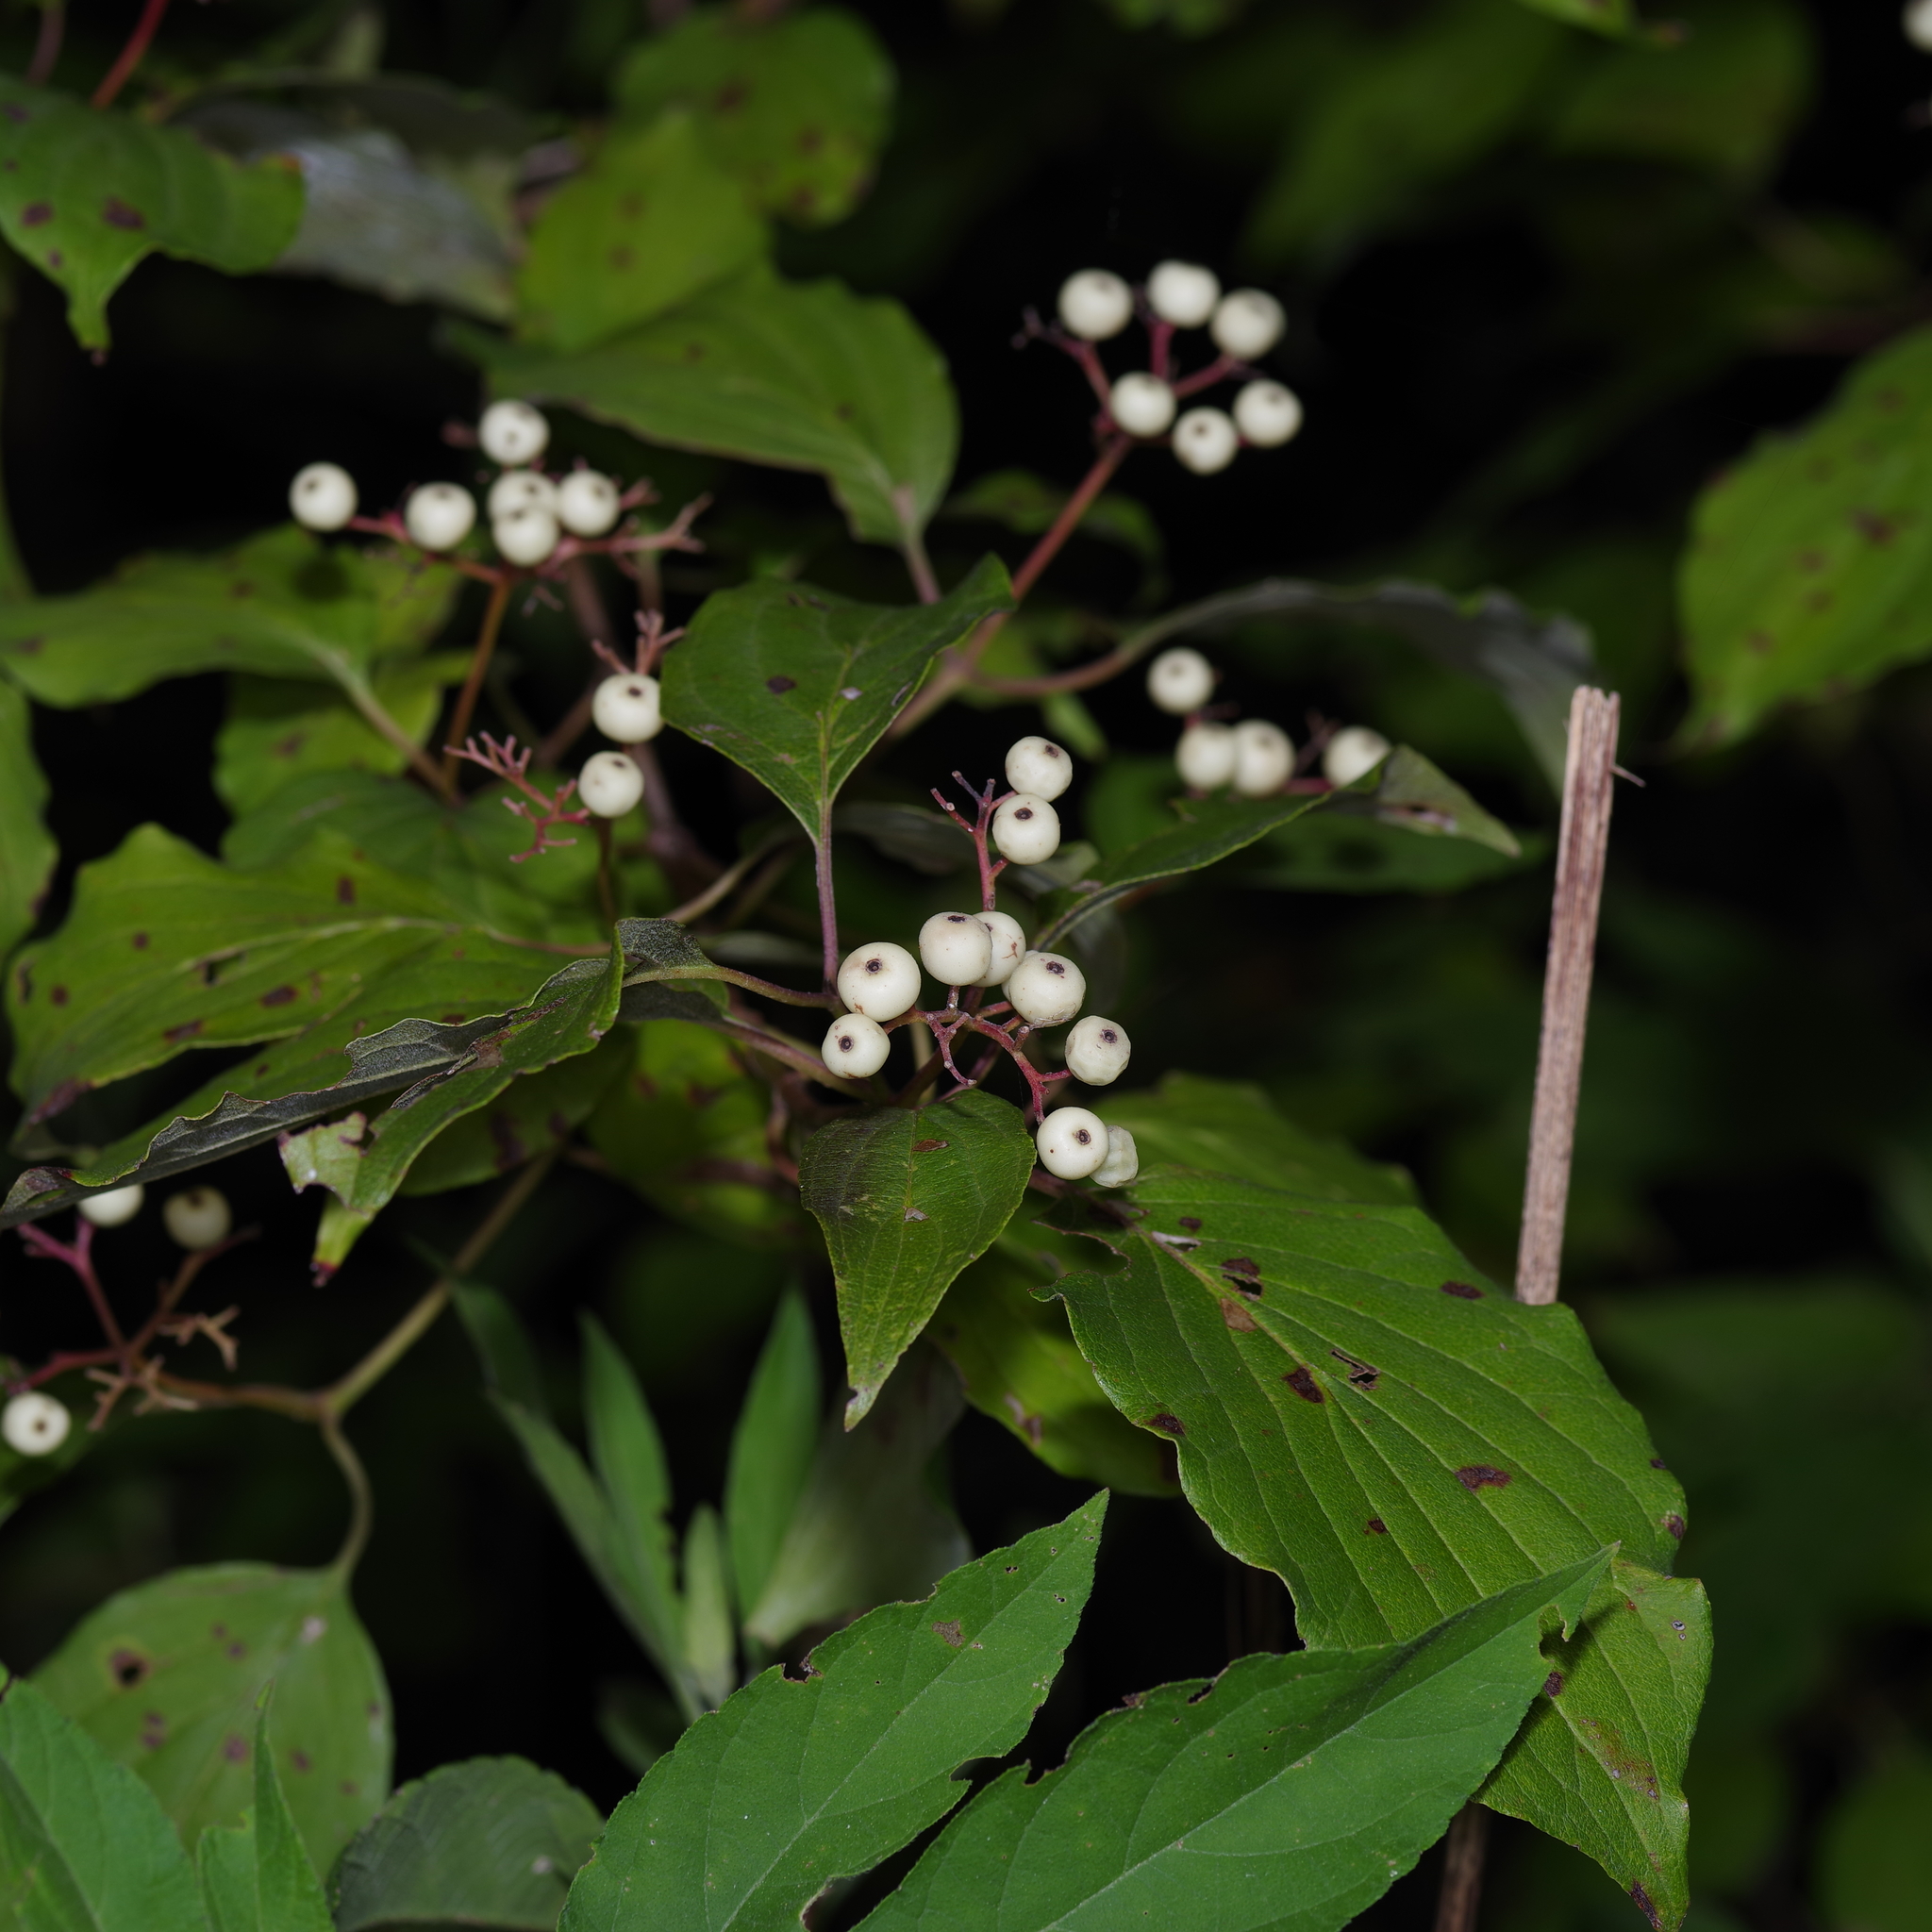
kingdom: Plantae
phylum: Tracheophyta
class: Magnoliopsida
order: Cornales
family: Cornaceae
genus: Cornus
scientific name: Cornus drummondii
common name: Rough-leaf dogwood
